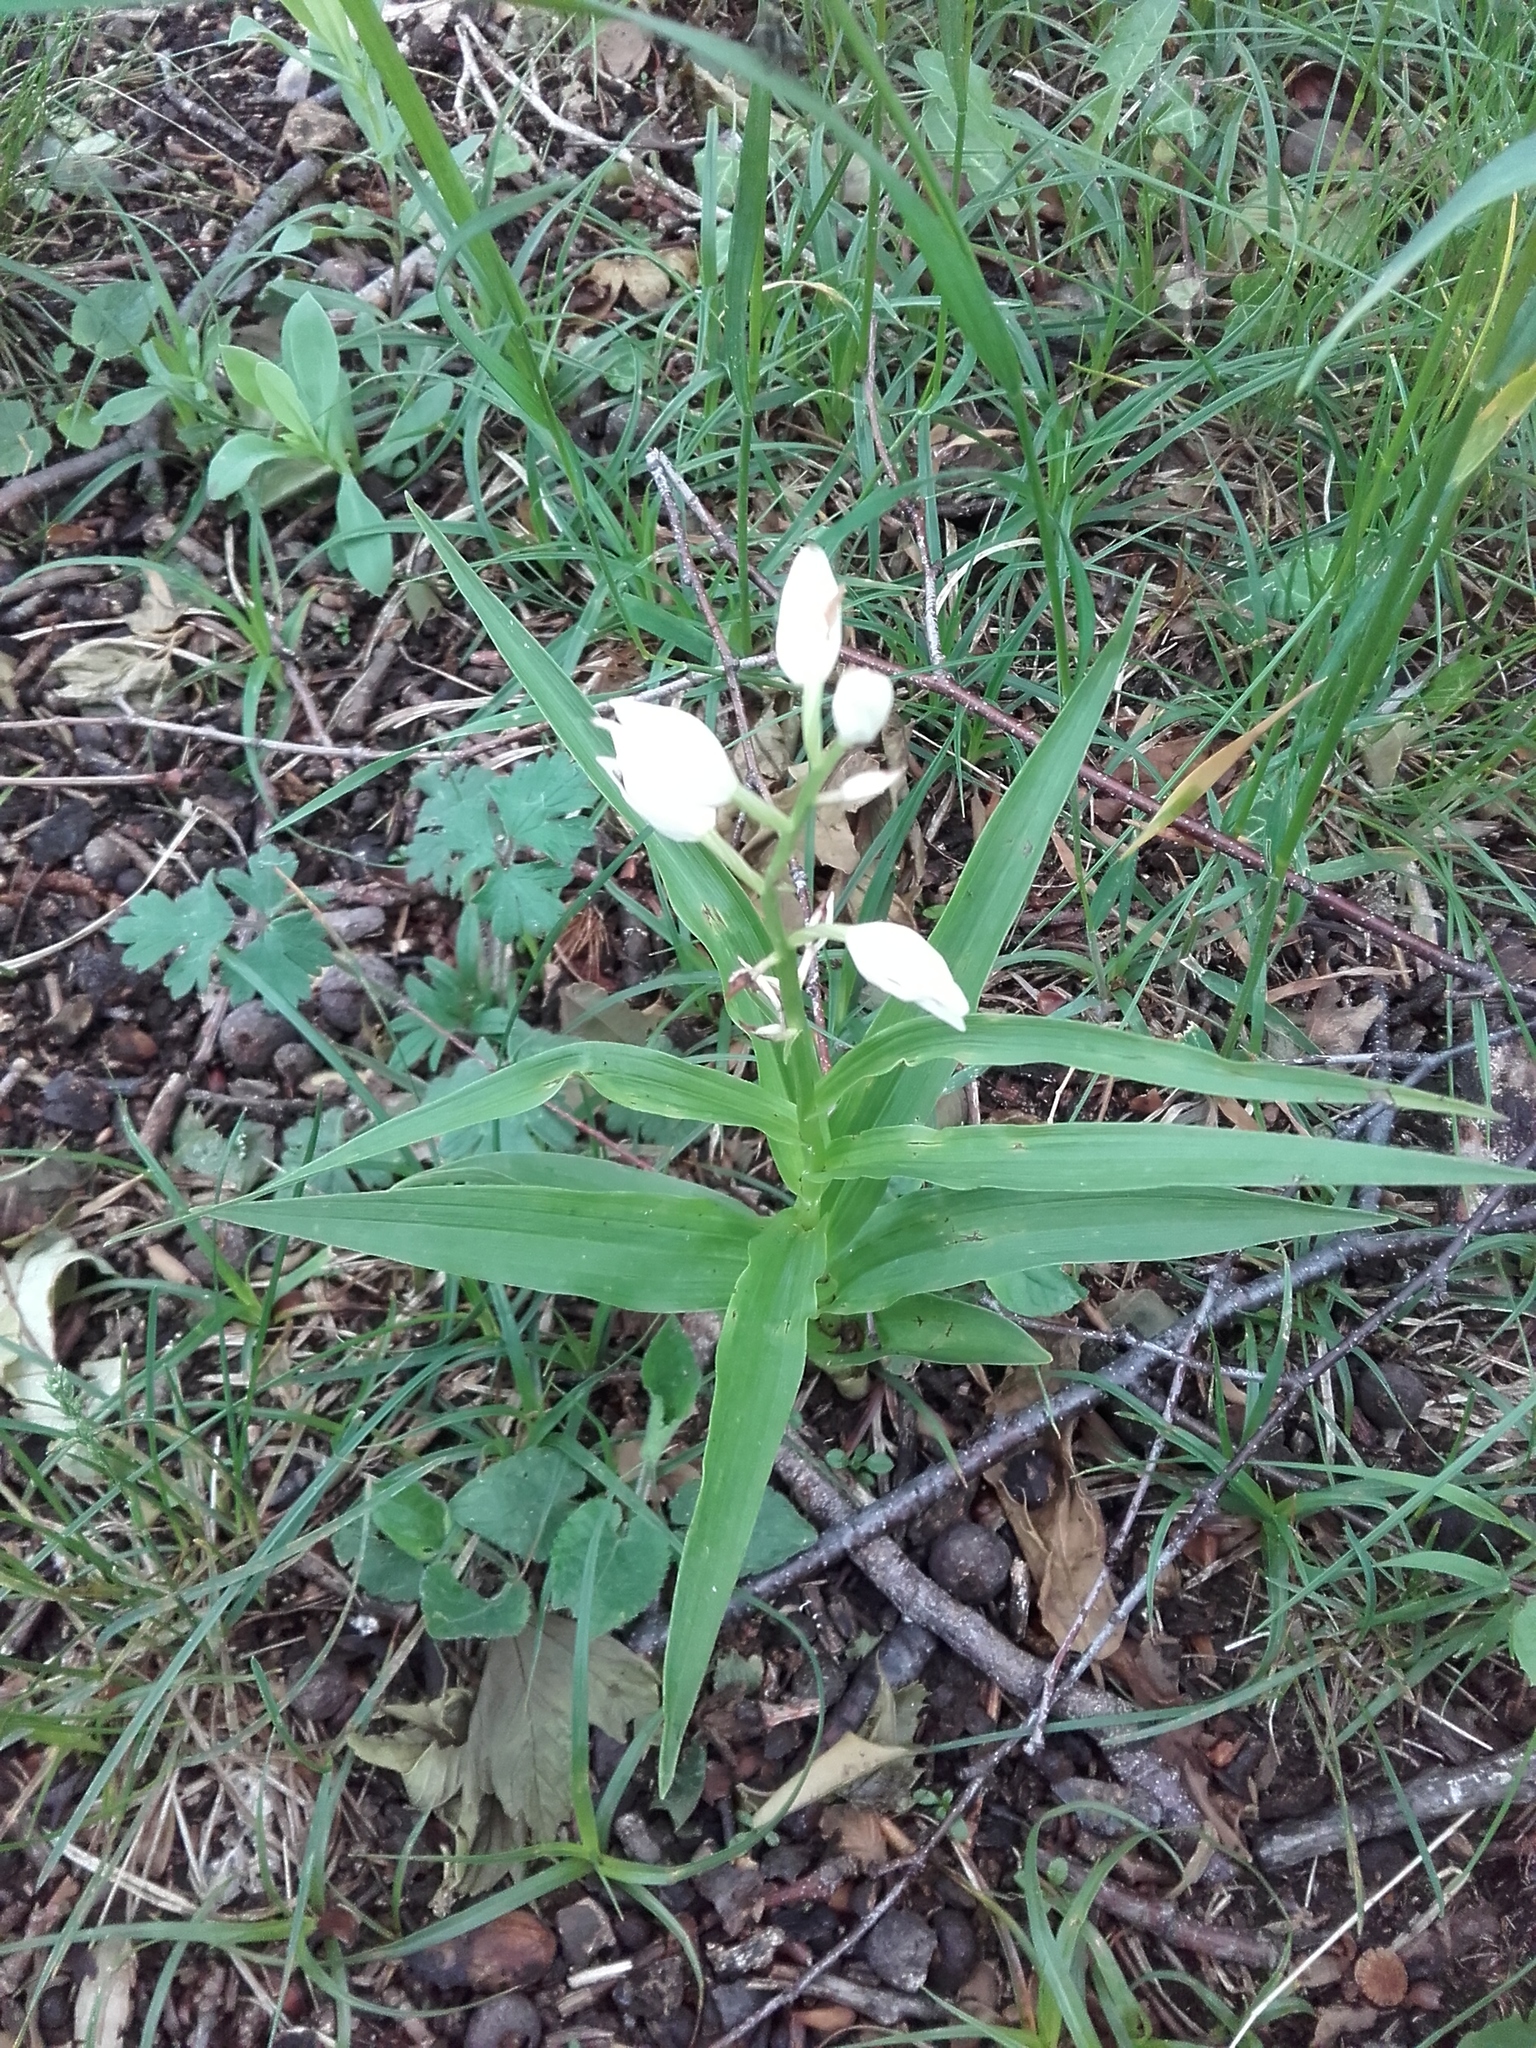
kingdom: Plantae
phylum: Tracheophyta
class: Liliopsida
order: Asparagales
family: Orchidaceae
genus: Cephalanthera
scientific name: Cephalanthera longifolia
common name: Narrow-leaved helleborine
